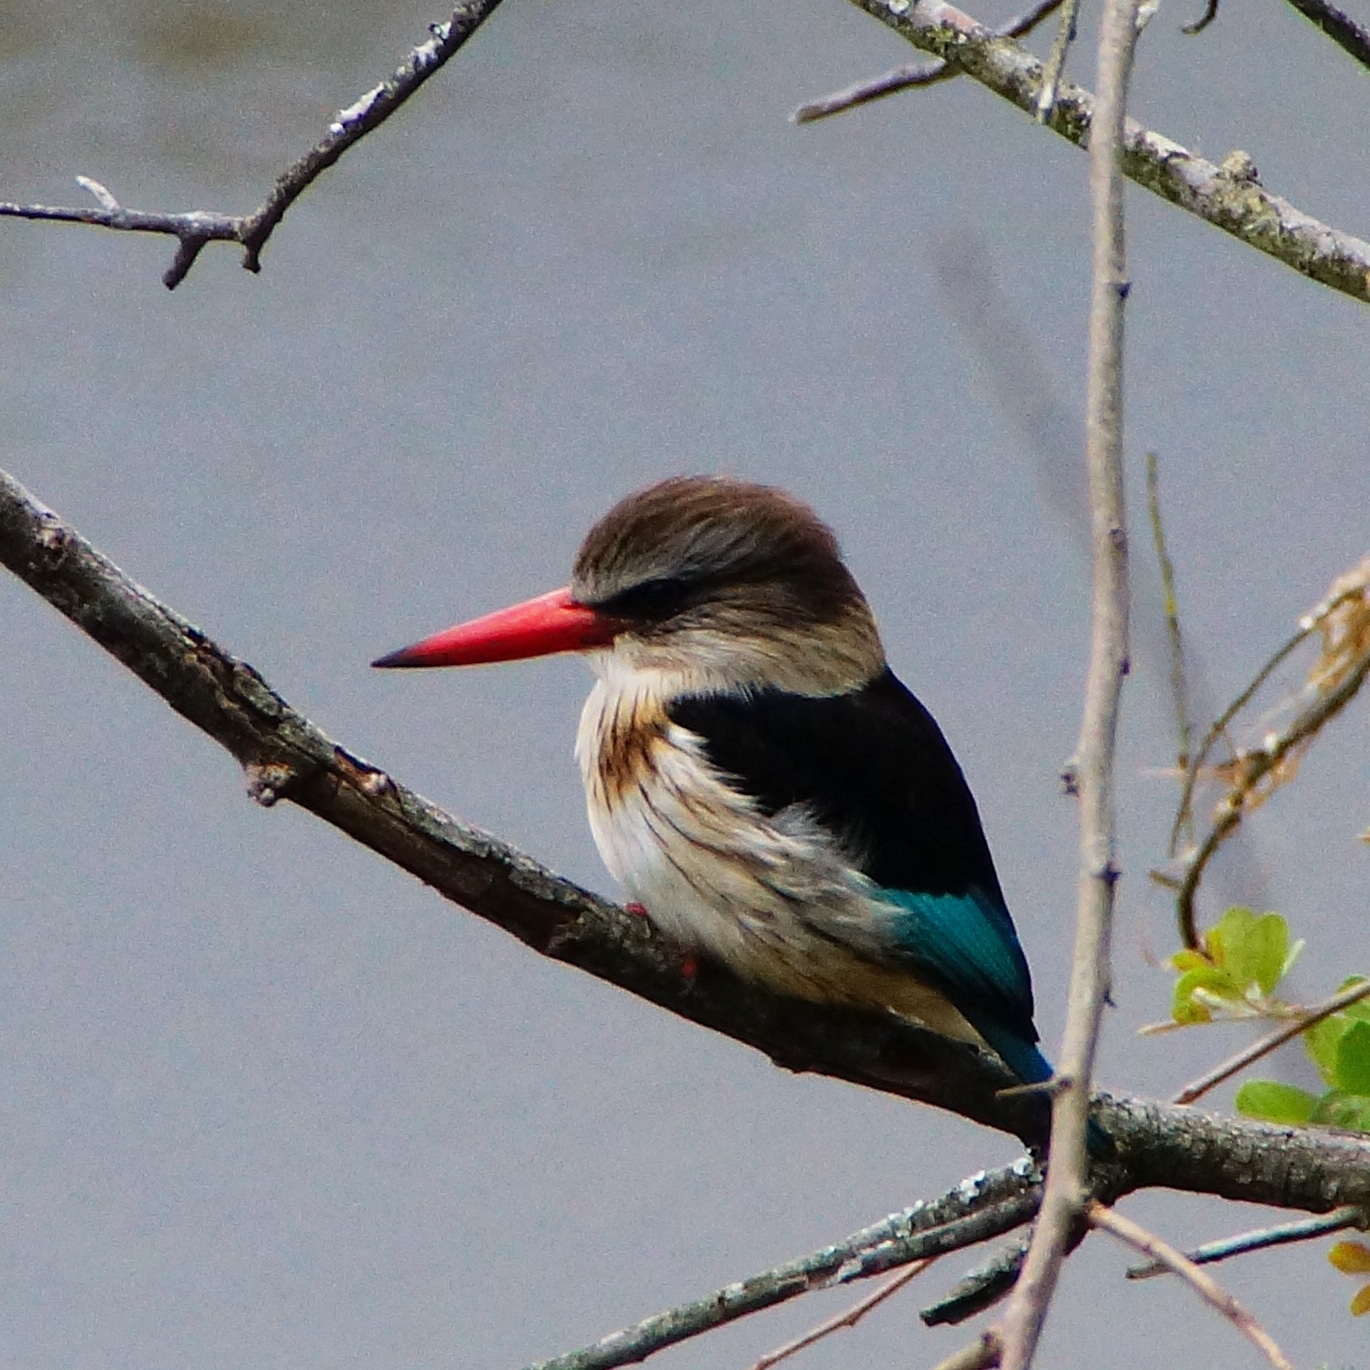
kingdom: Animalia
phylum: Chordata
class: Aves
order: Coraciiformes
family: Alcedinidae
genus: Halcyon
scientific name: Halcyon albiventris
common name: Brown-hooded kingfisher
